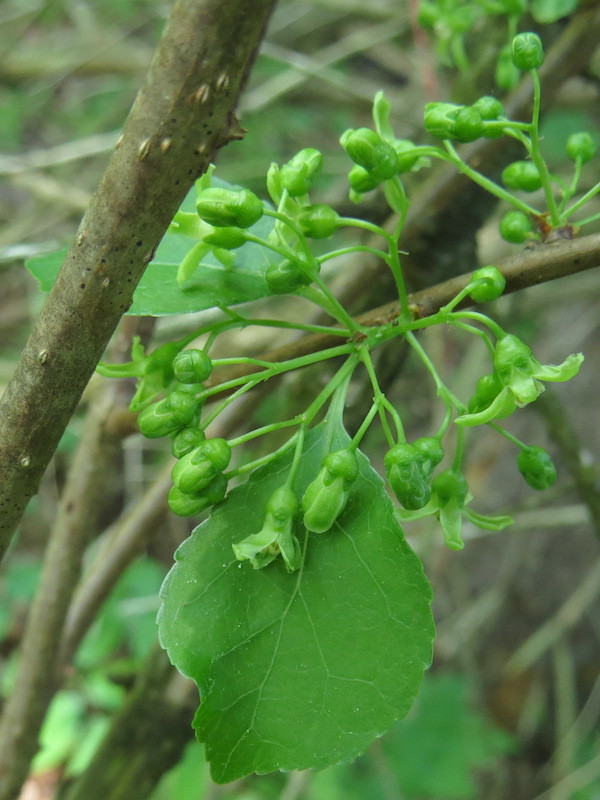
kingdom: Plantae
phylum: Tracheophyta
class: Magnoliopsida
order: Celastrales
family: Celastraceae
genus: Celastrus
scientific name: Celastrus orbiculatus
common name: Oriental bittersweet
